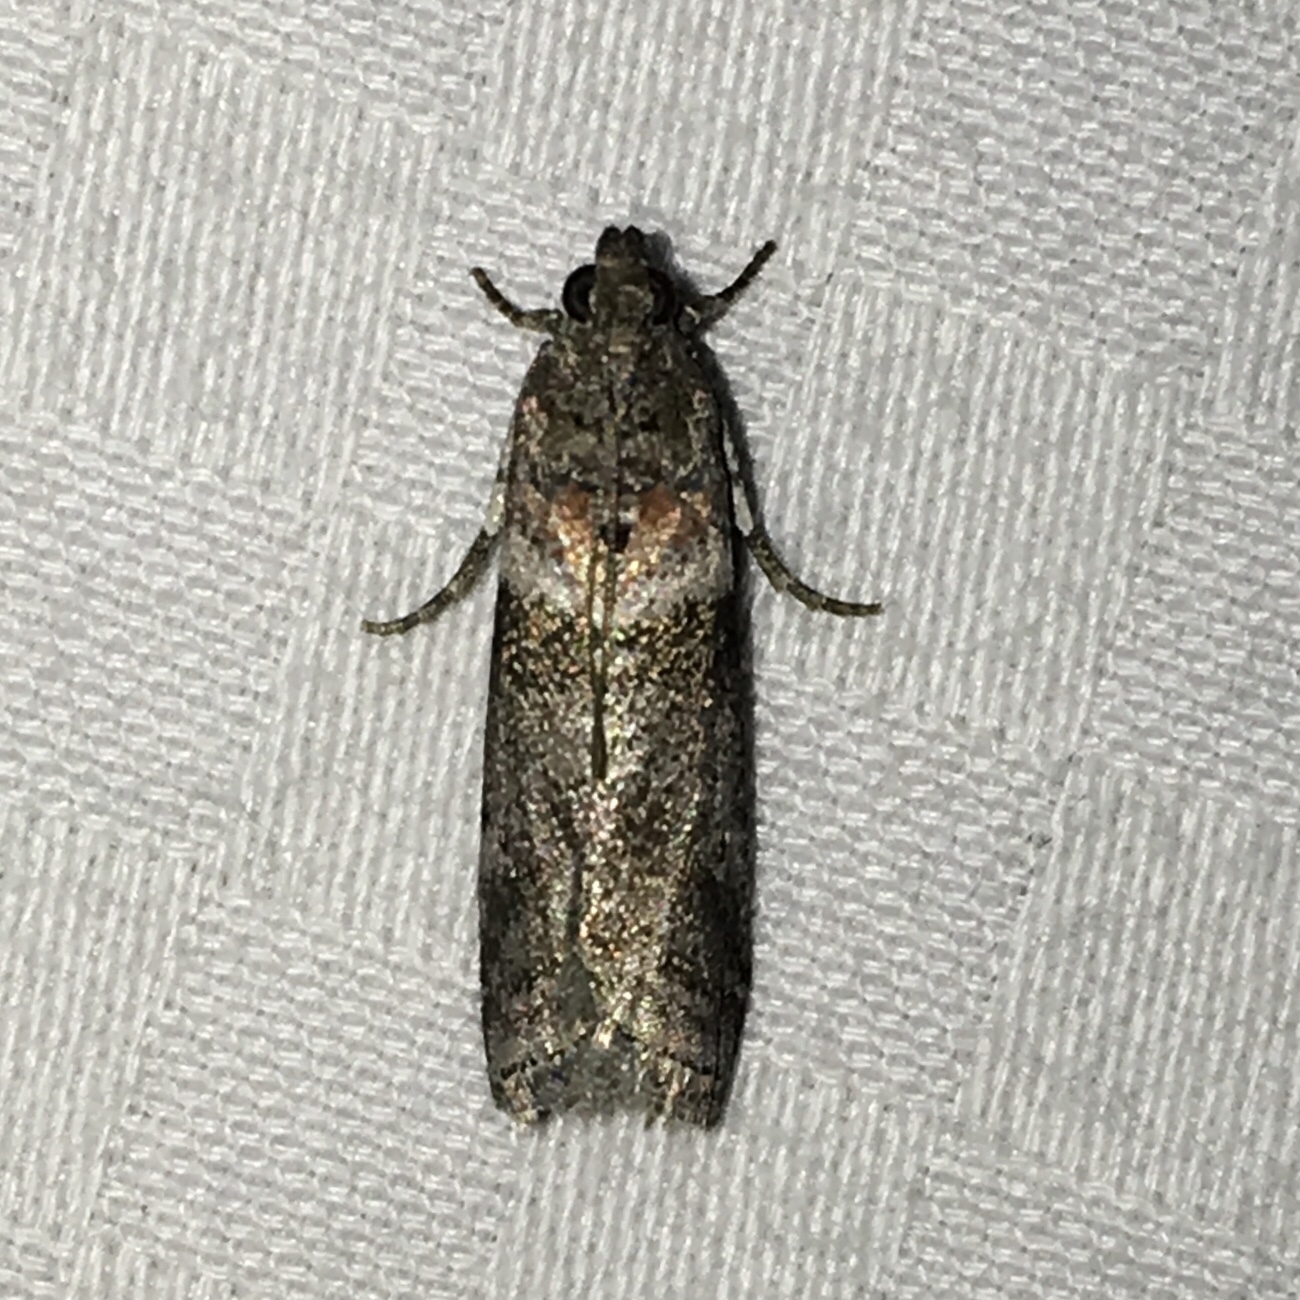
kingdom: Animalia
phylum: Arthropoda
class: Insecta
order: Lepidoptera
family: Notodontidae
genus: Schizura
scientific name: Schizura
